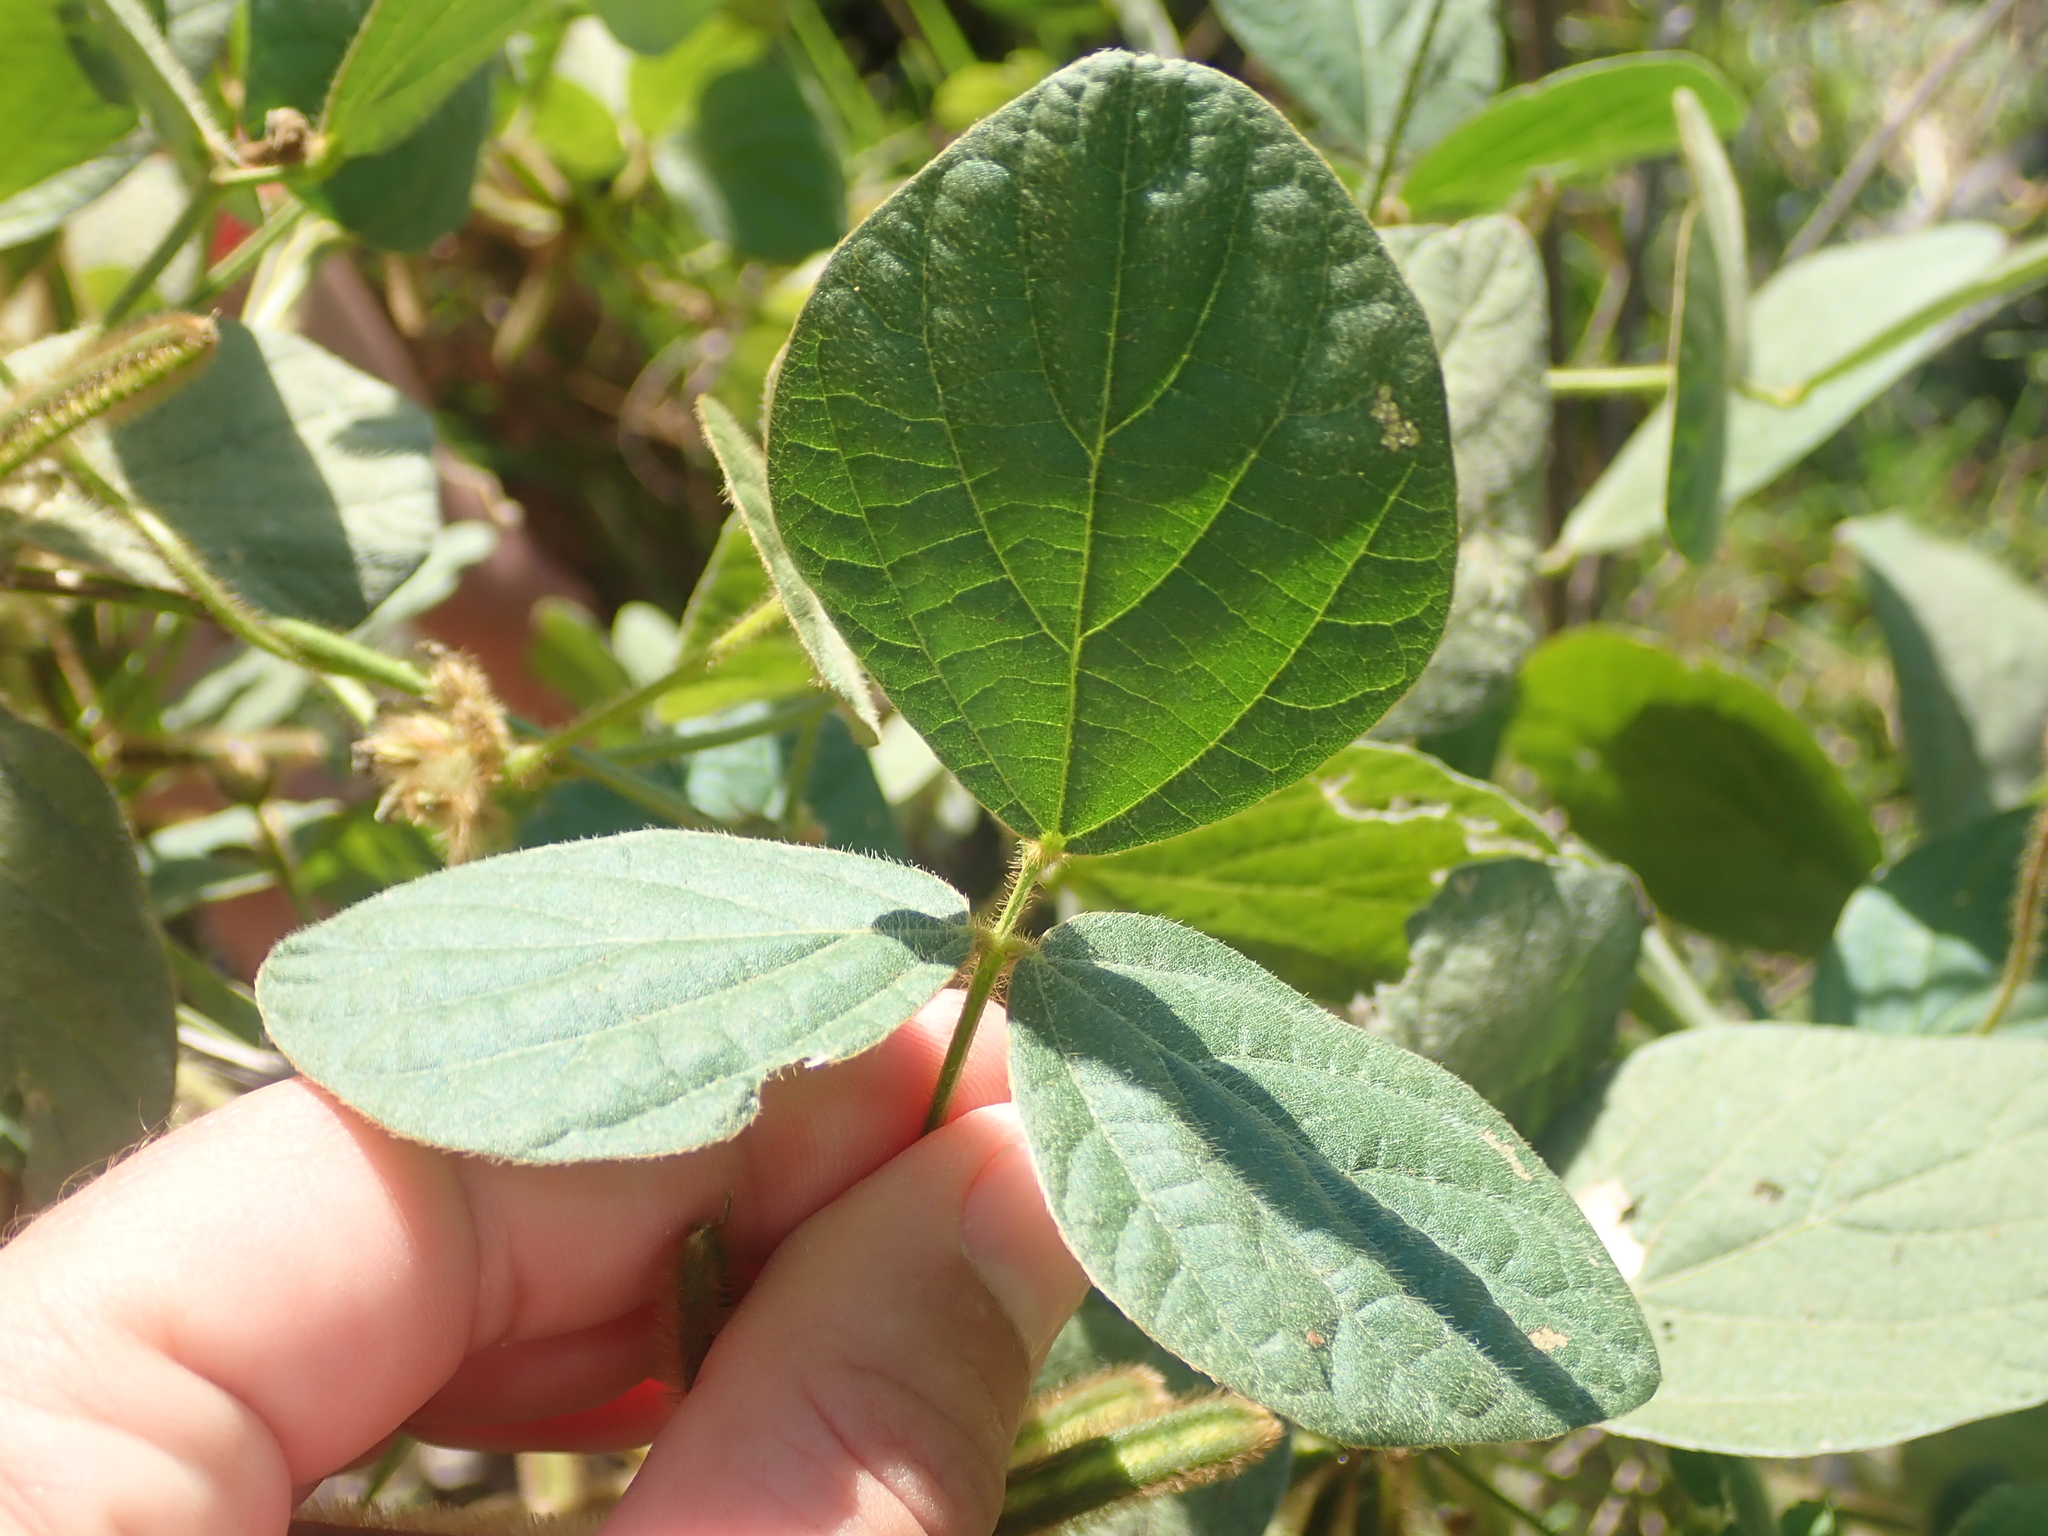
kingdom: Plantae
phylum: Tracheophyta
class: Magnoliopsida
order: Fabales
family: Fabaceae
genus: Calopogonium
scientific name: Calopogonium mucunoides
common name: Calopo
